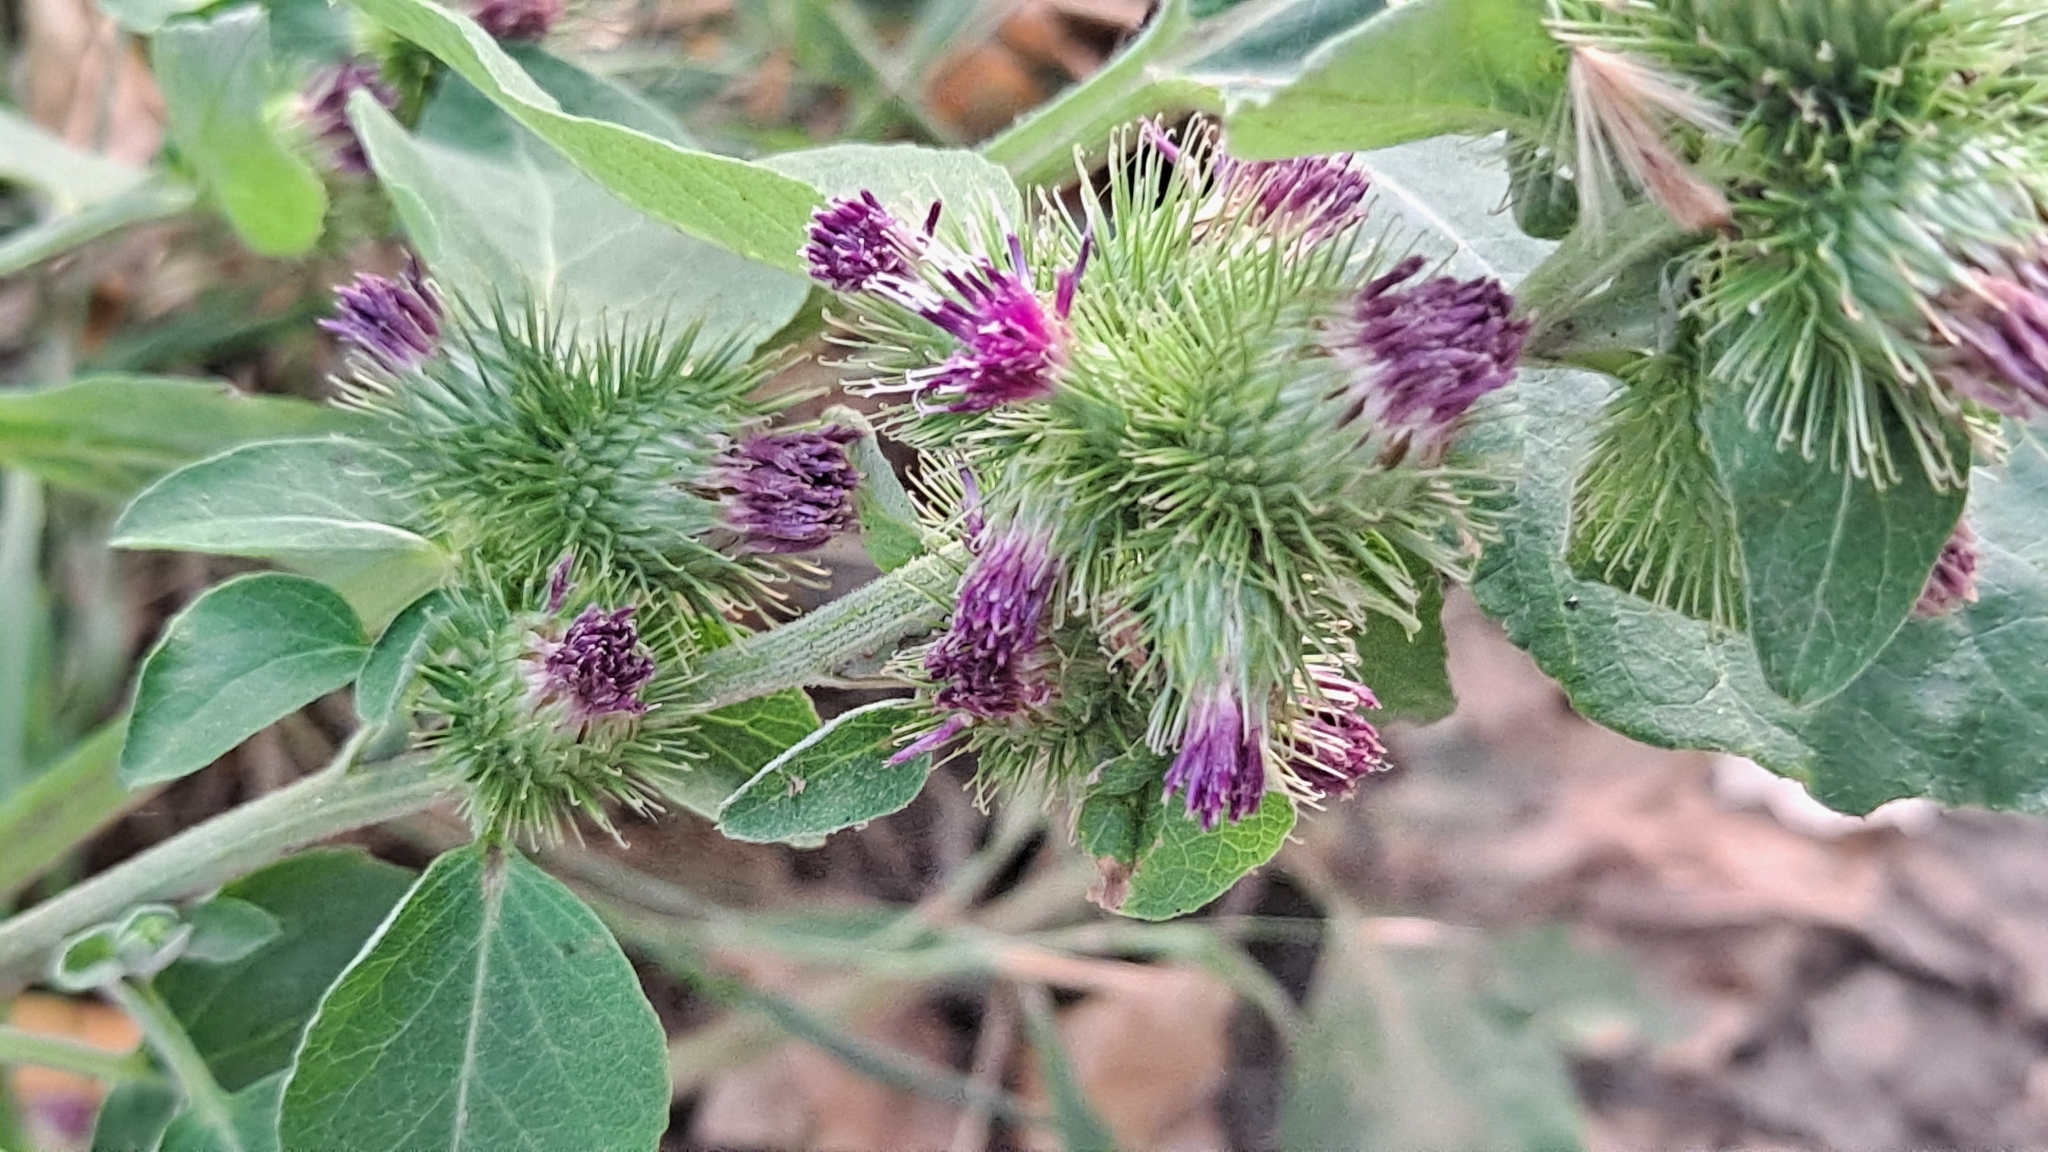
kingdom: Plantae
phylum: Tracheophyta
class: Magnoliopsida
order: Asterales
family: Asteraceae
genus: Arctium
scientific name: Arctium minus
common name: Lesser burdock
